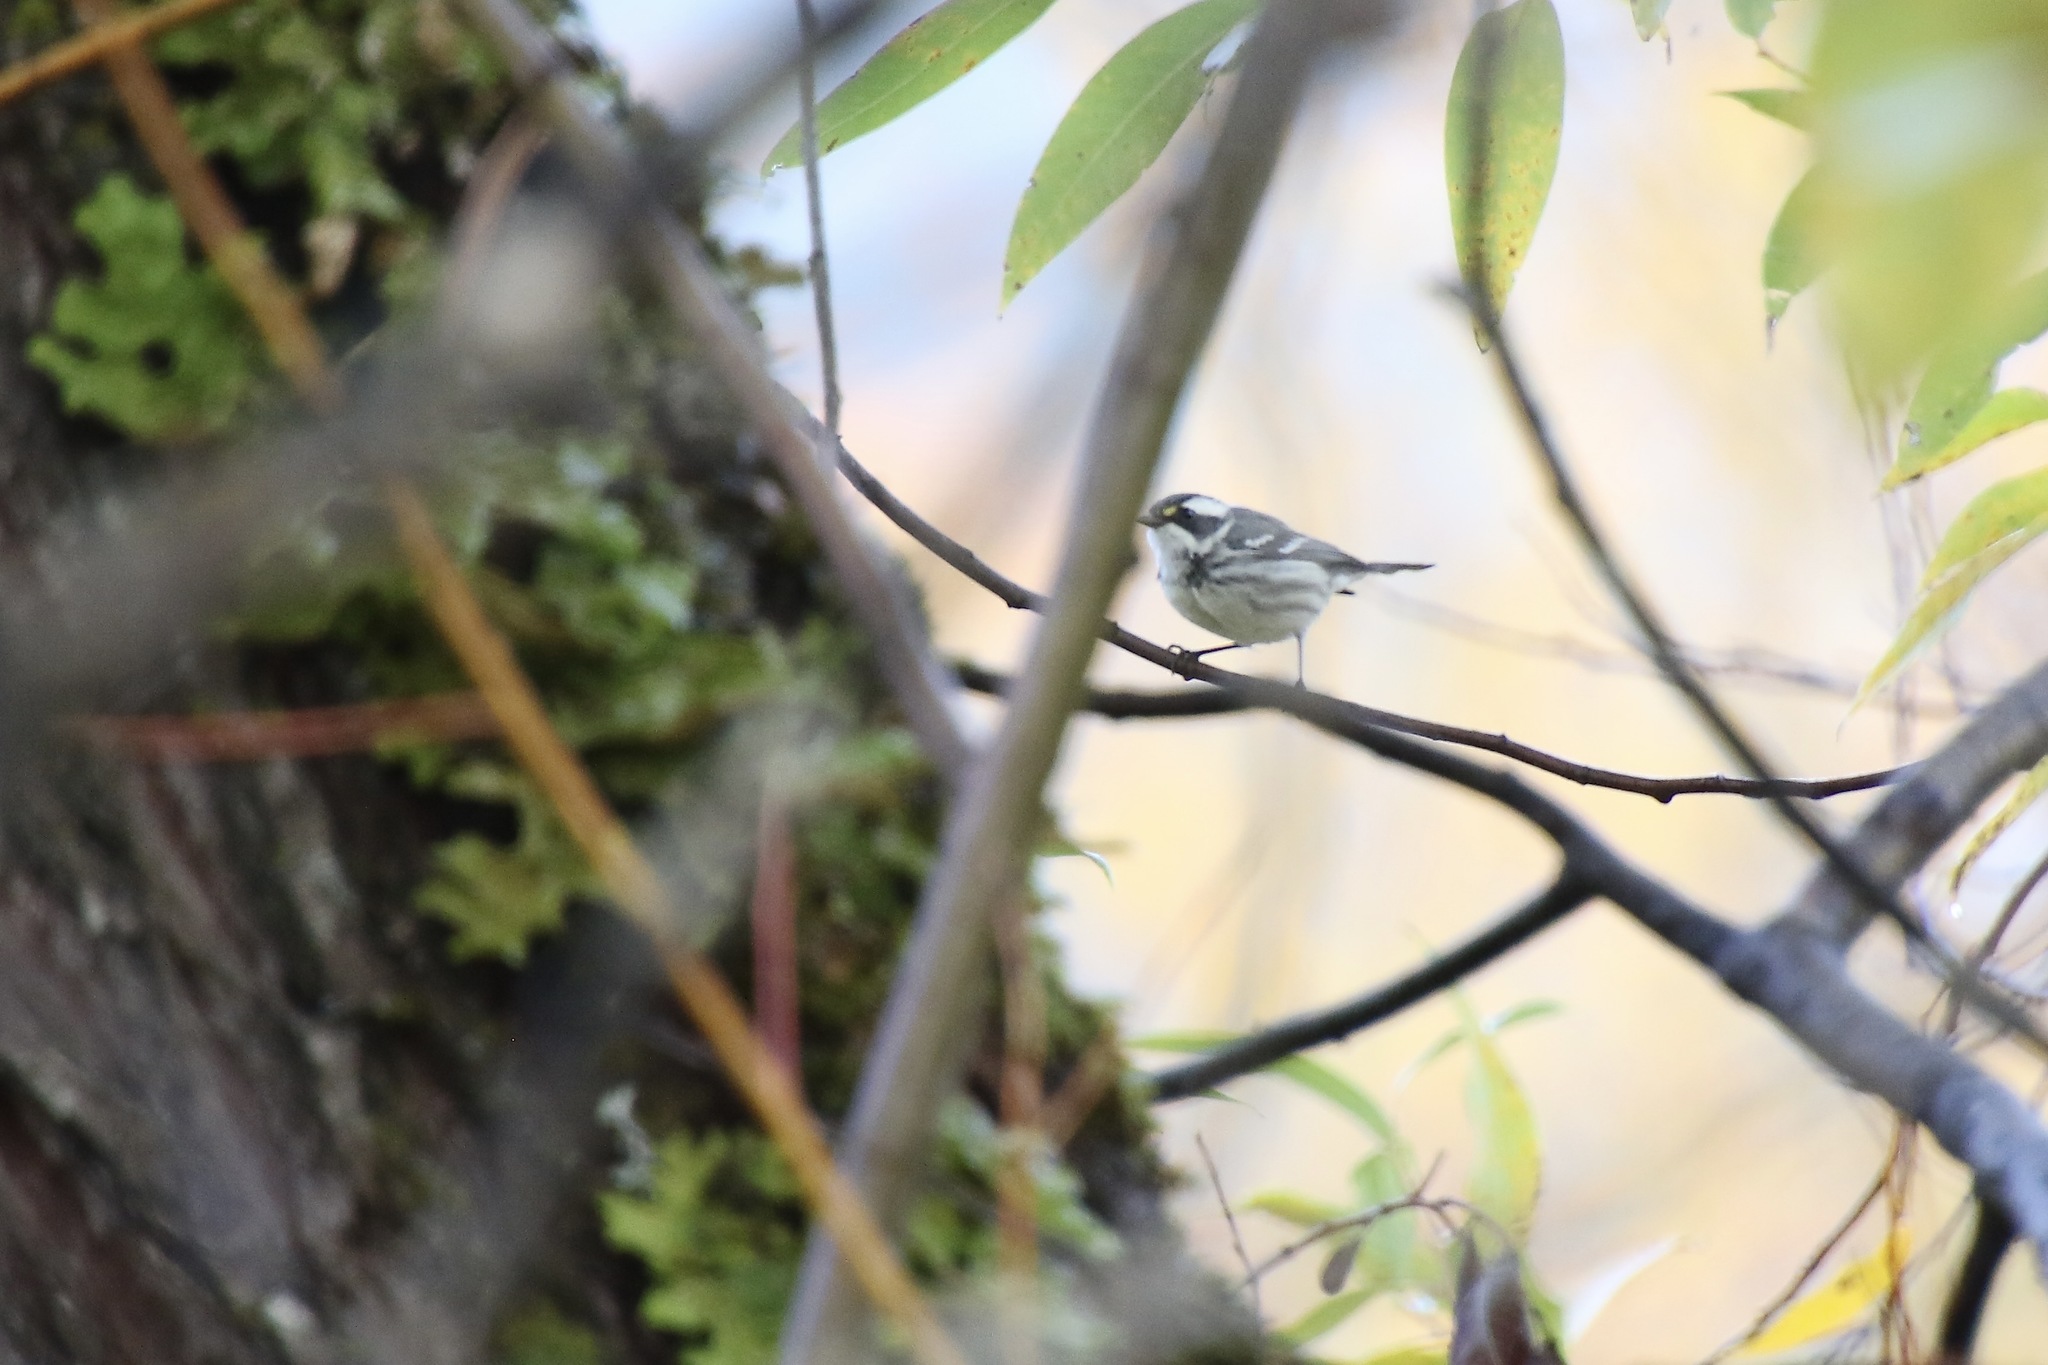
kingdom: Animalia
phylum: Chordata
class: Aves
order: Passeriformes
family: Parulidae
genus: Setophaga
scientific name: Setophaga nigrescens
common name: Black-throated gray warbler
